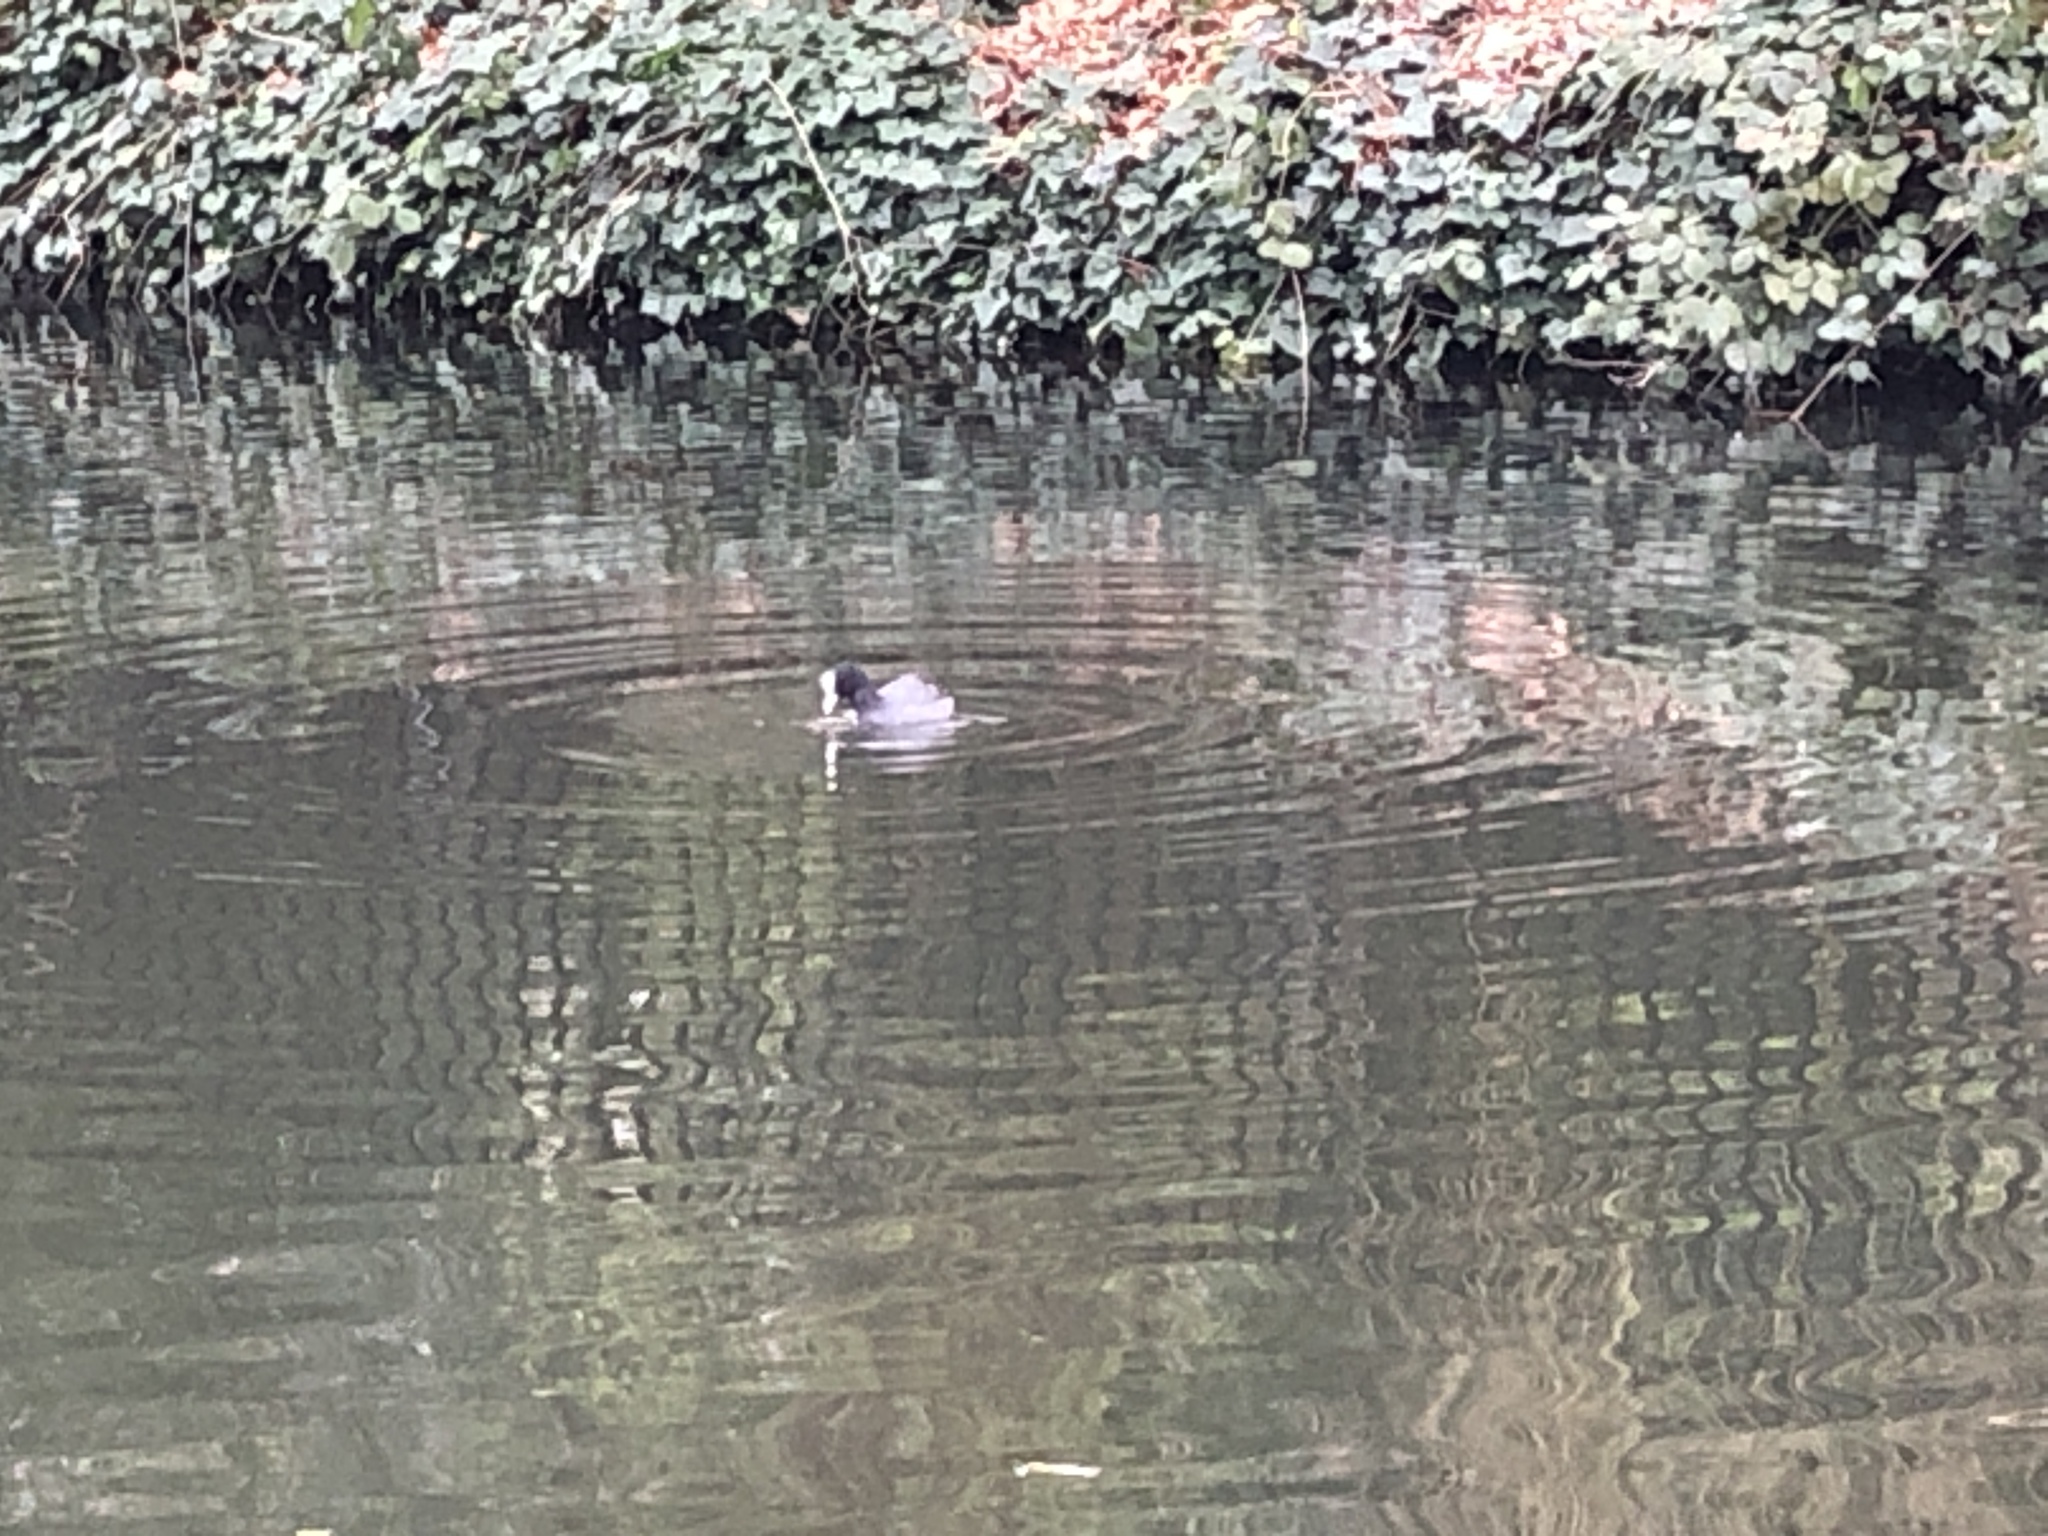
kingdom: Animalia
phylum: Chordata
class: Aves
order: Gruiformes
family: Rallidae
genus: Fulica
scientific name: Fulica atra
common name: Eurasian coot
